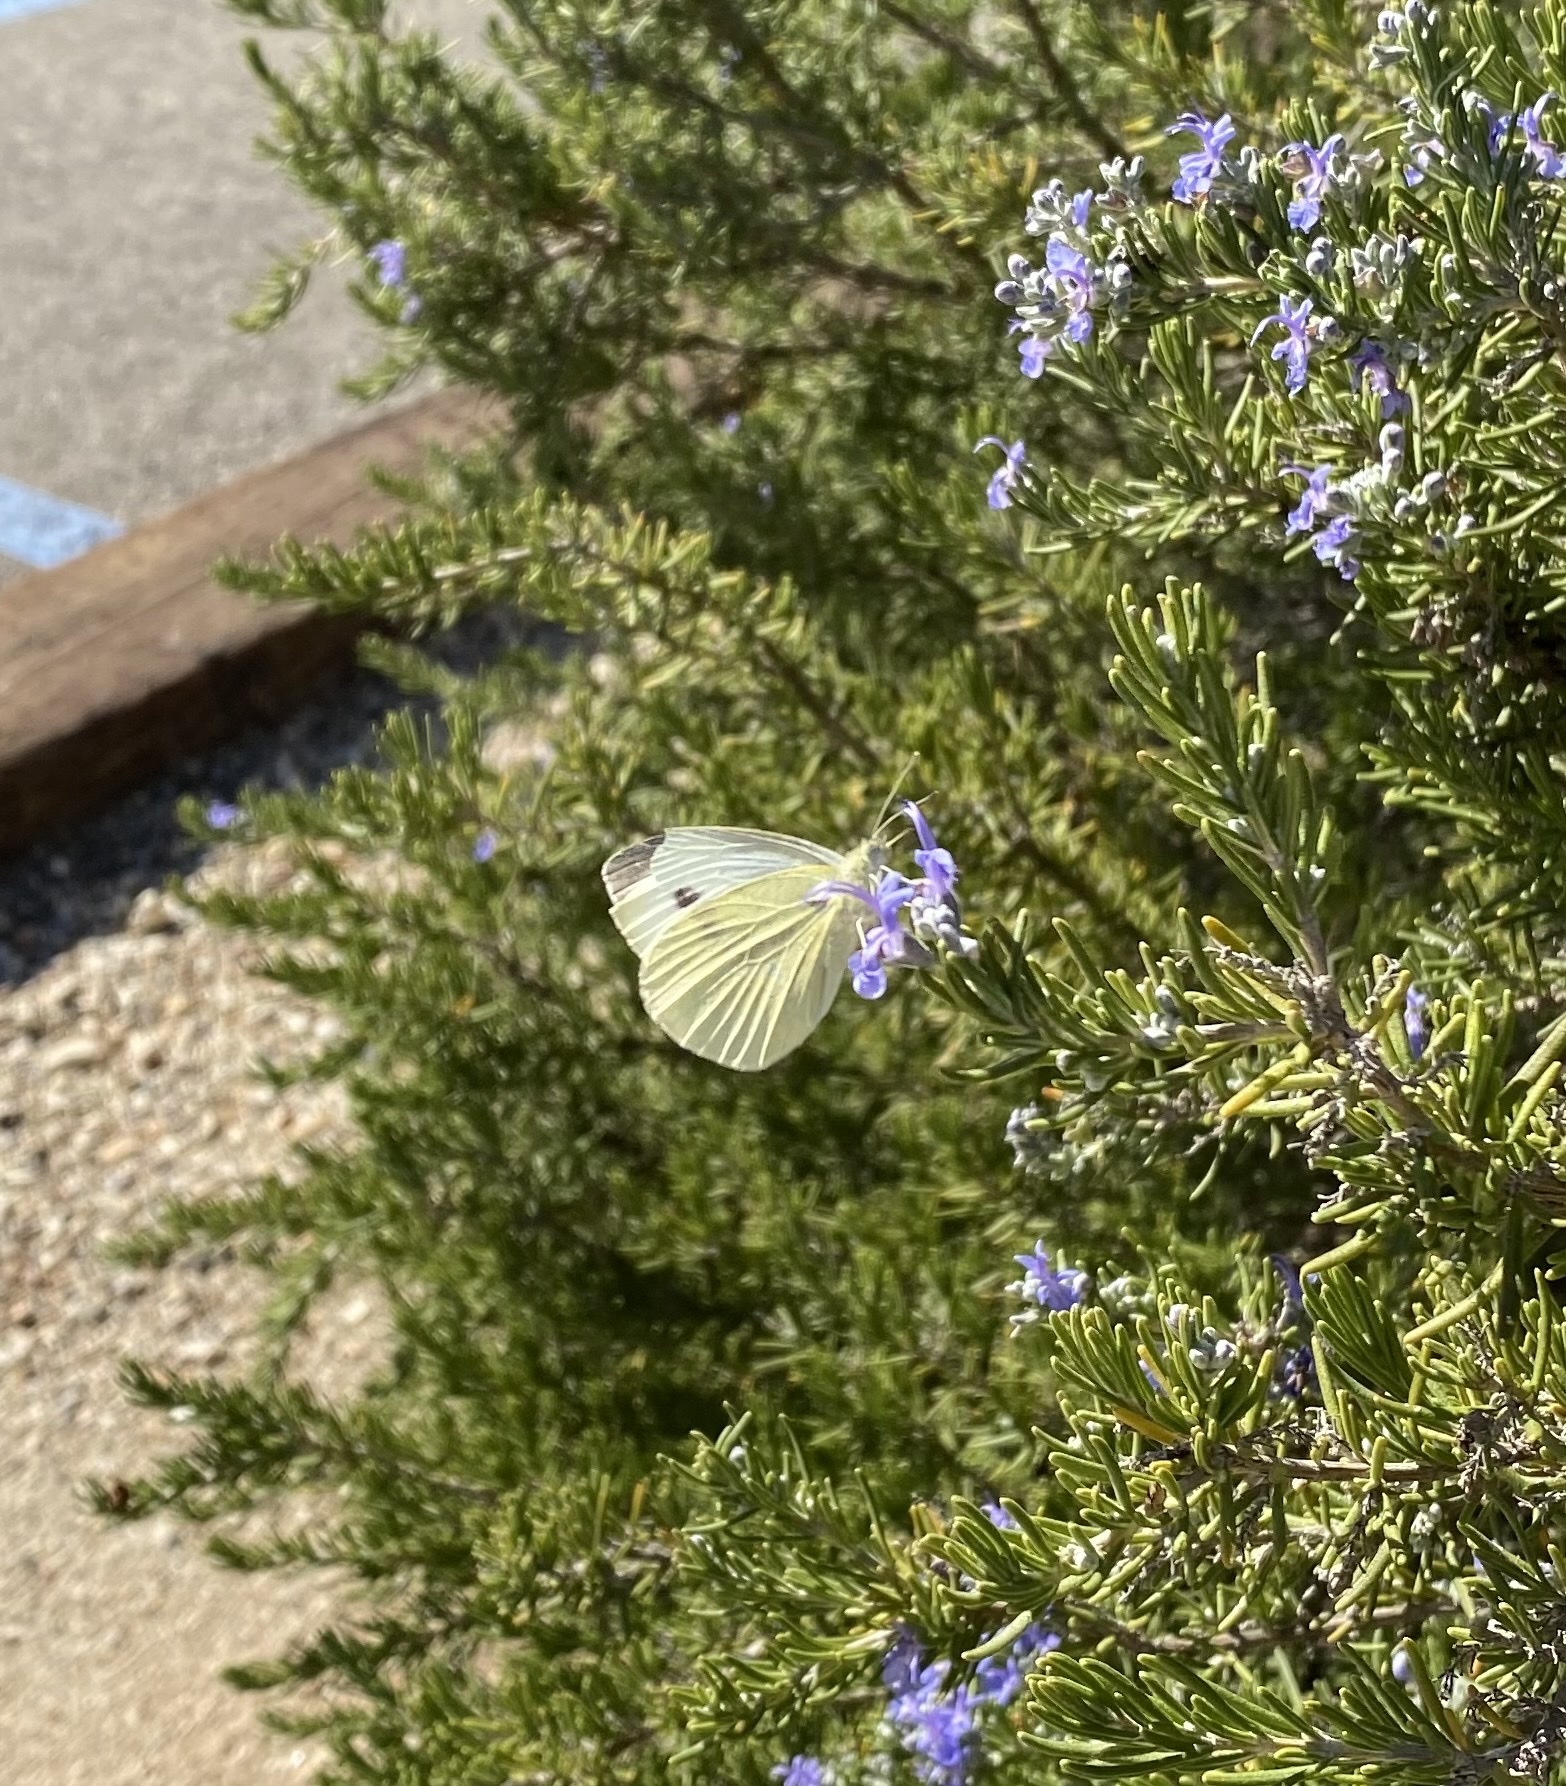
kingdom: Animalia
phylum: Arthropoda
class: Insecta
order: Lepidoptera
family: Pieridae
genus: Pieris
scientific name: Pieris rapae
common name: Small white
